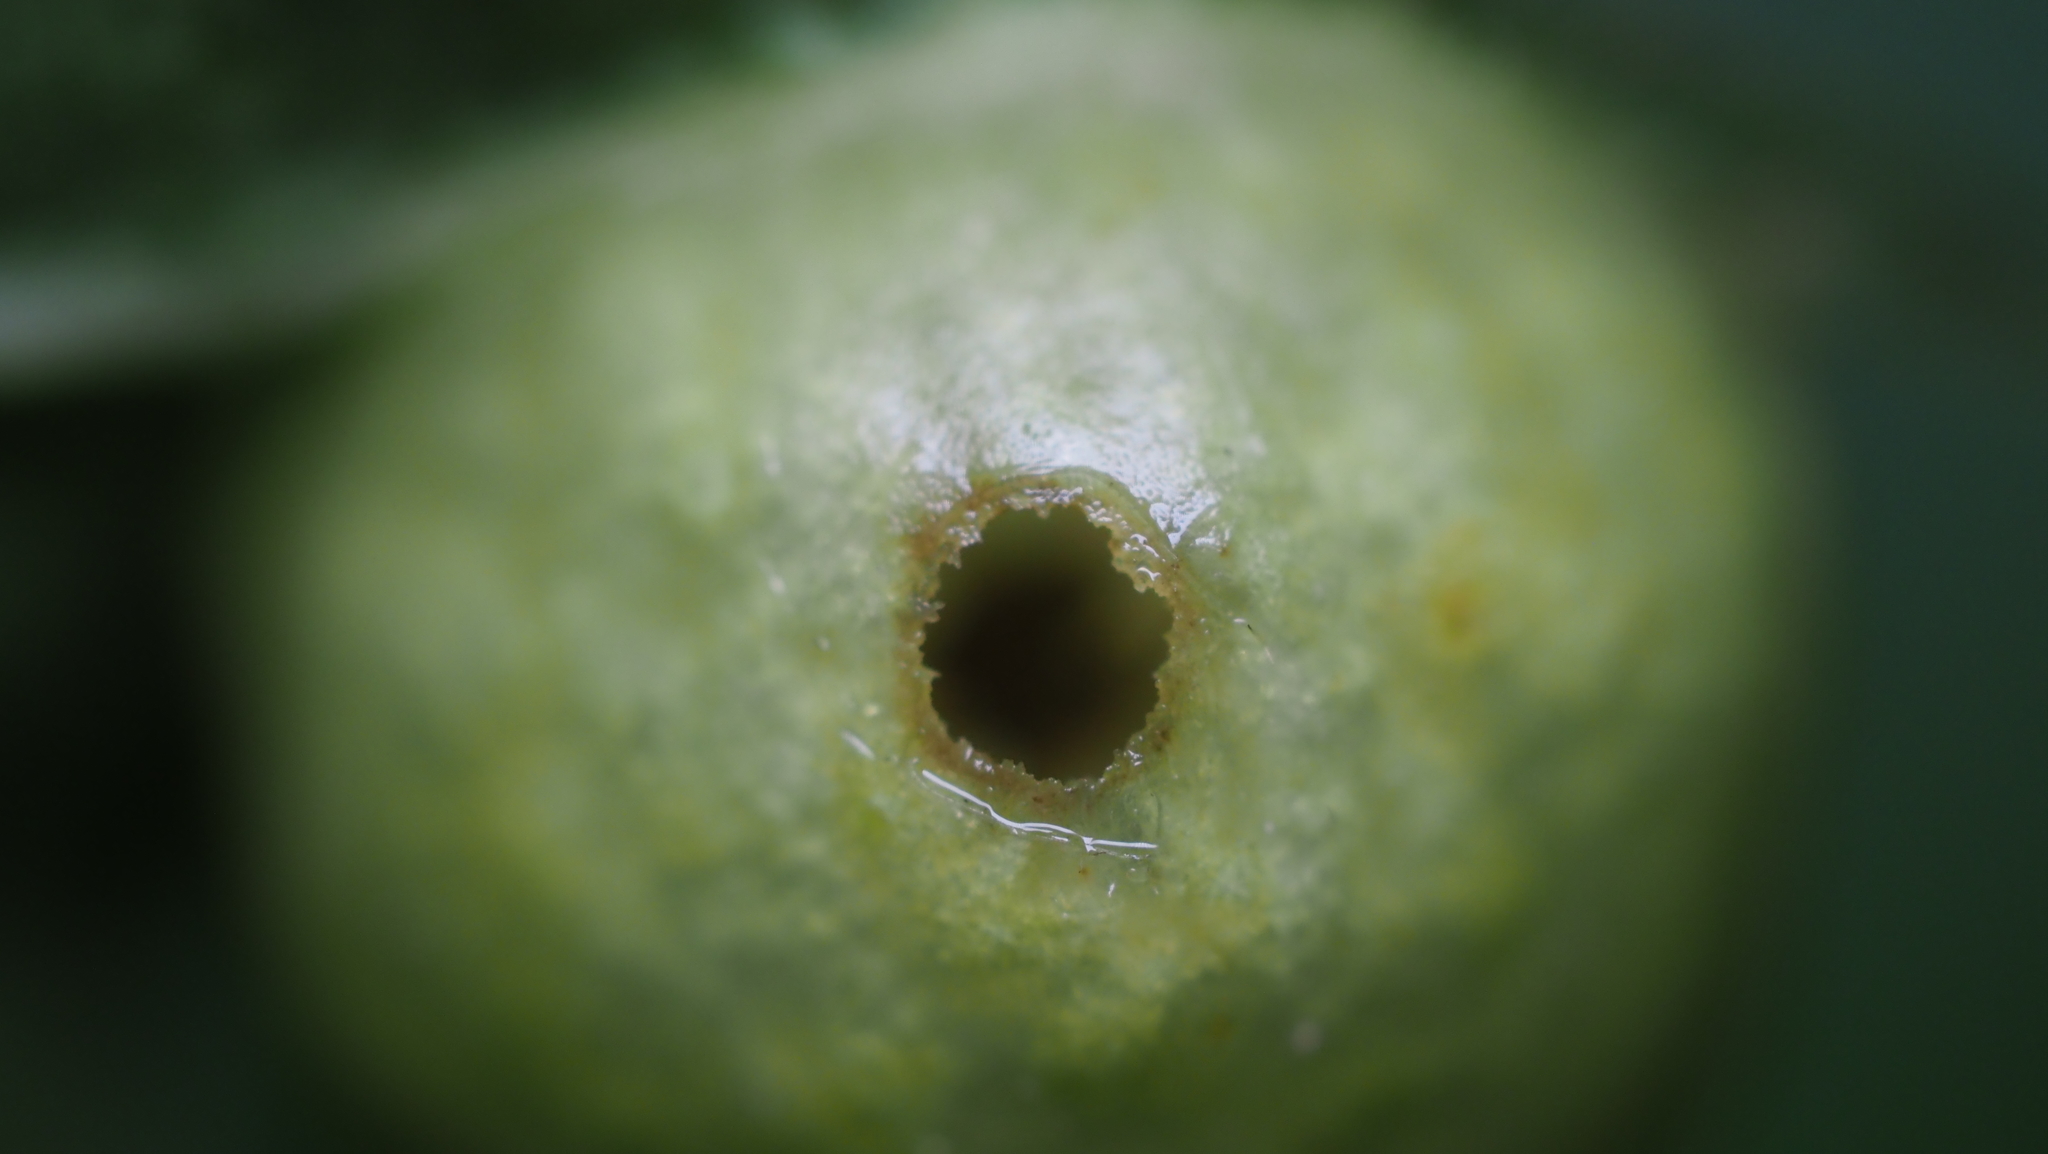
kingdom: Animalia
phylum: Arthropoda
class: Insecta
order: Hymenoptera
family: Cynipidae
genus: Amphibolips
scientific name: Amphibolips
